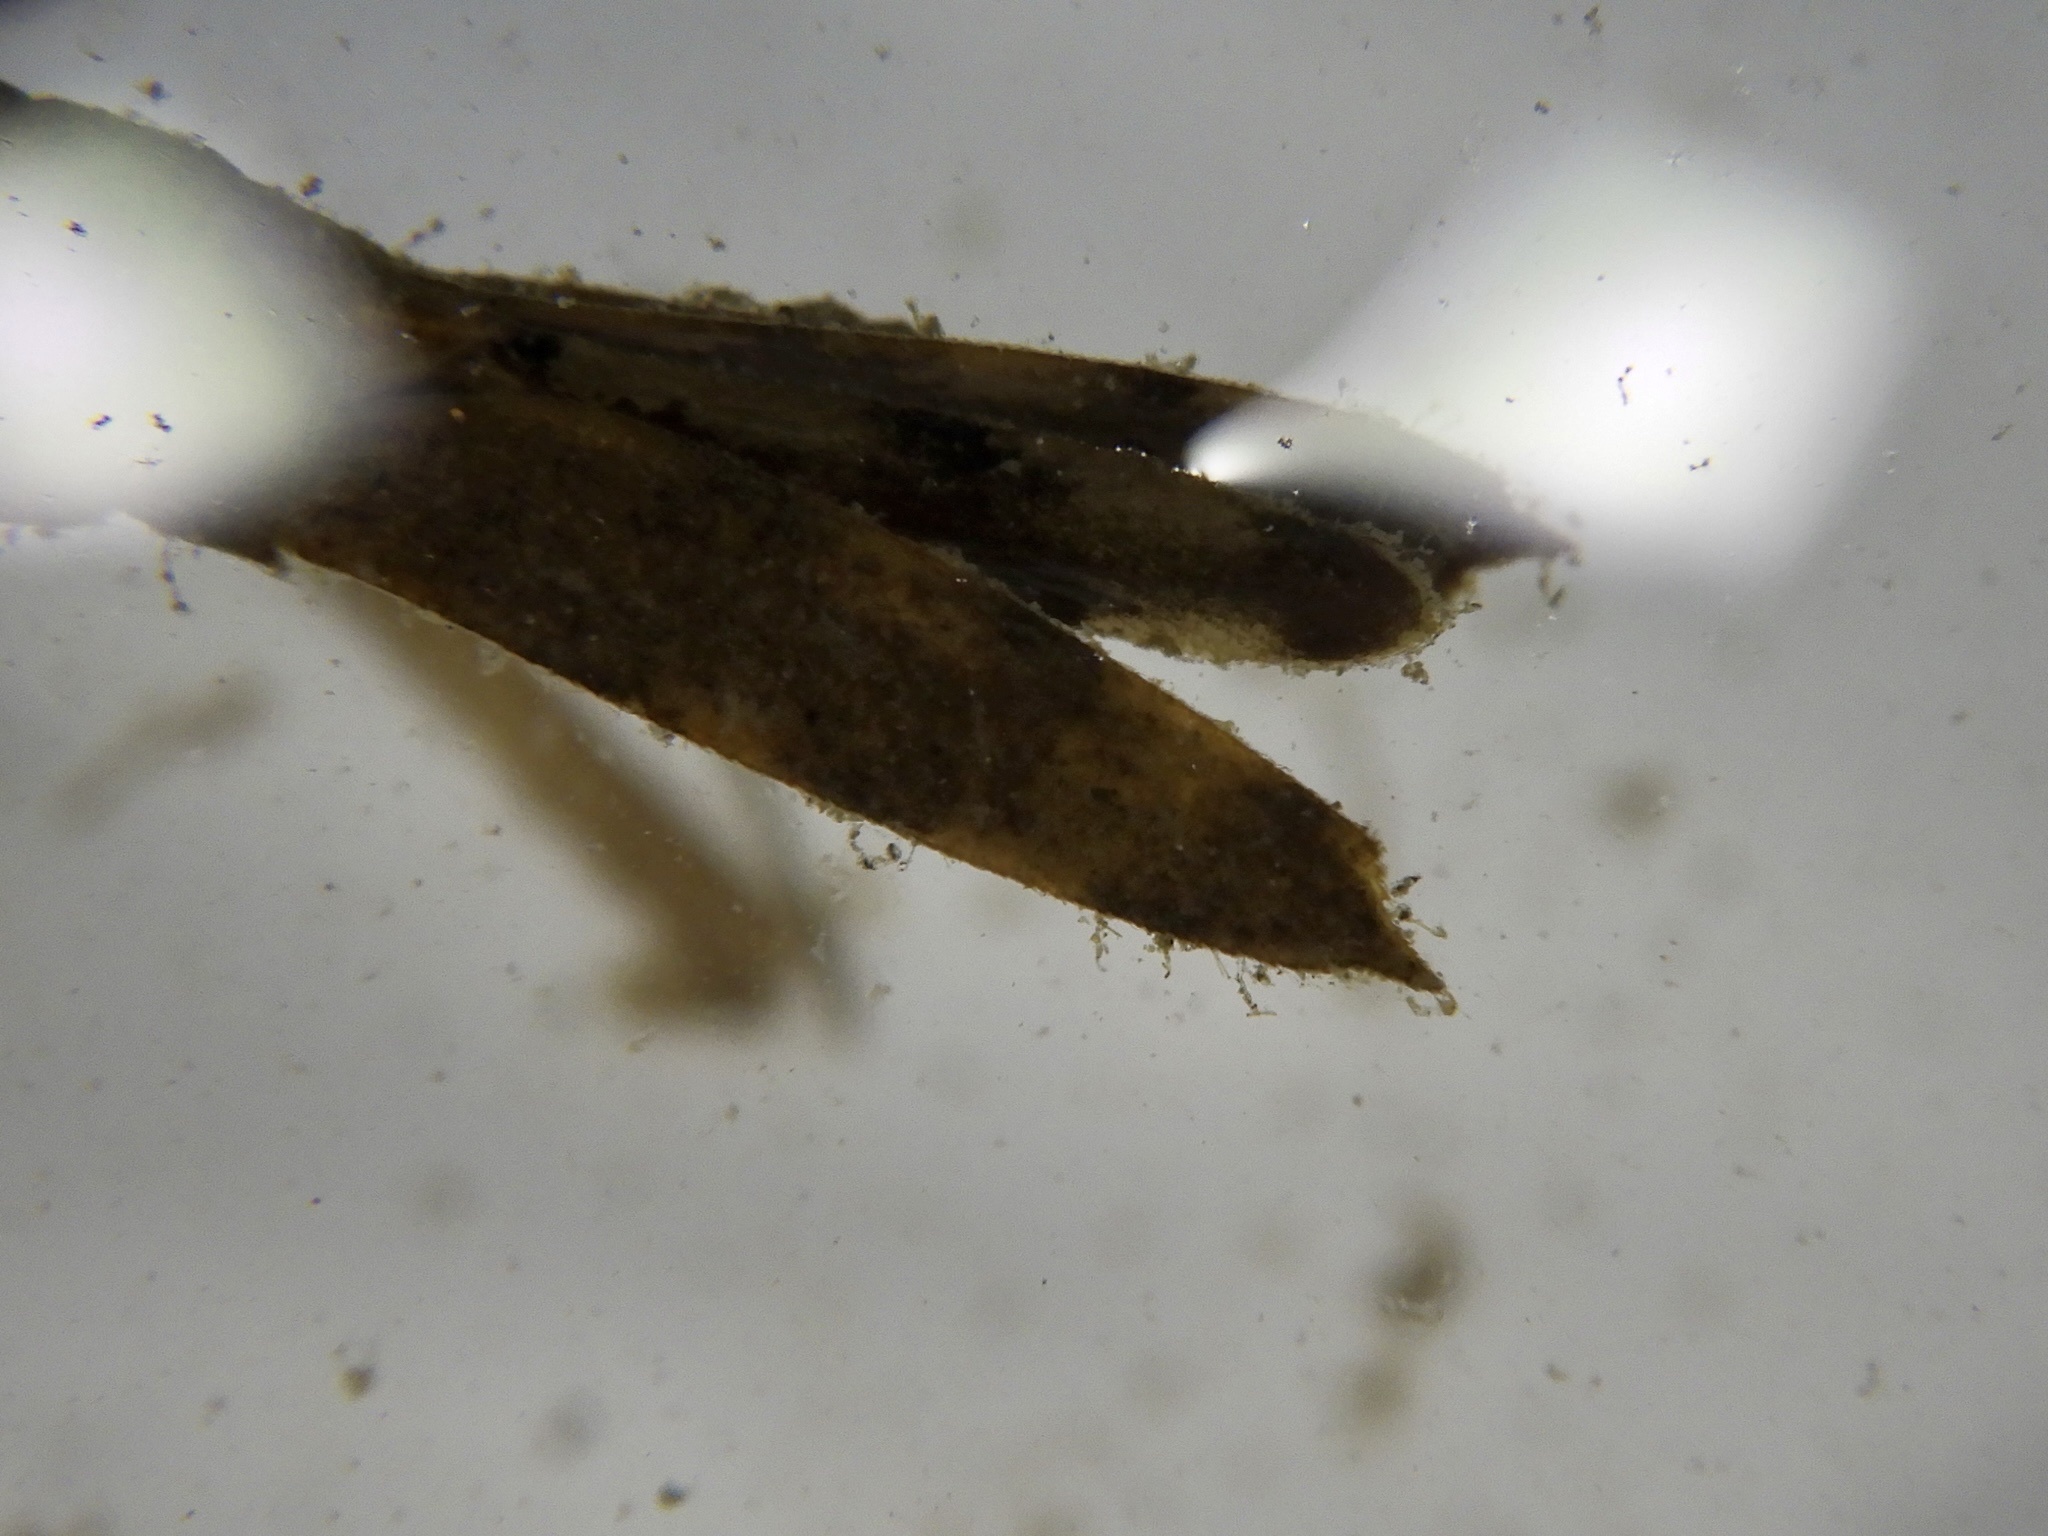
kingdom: Animalia
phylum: Arthropoda
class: Insecta
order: Odonata
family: Calopterygidae
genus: Mnais
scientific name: Mnais costalis
